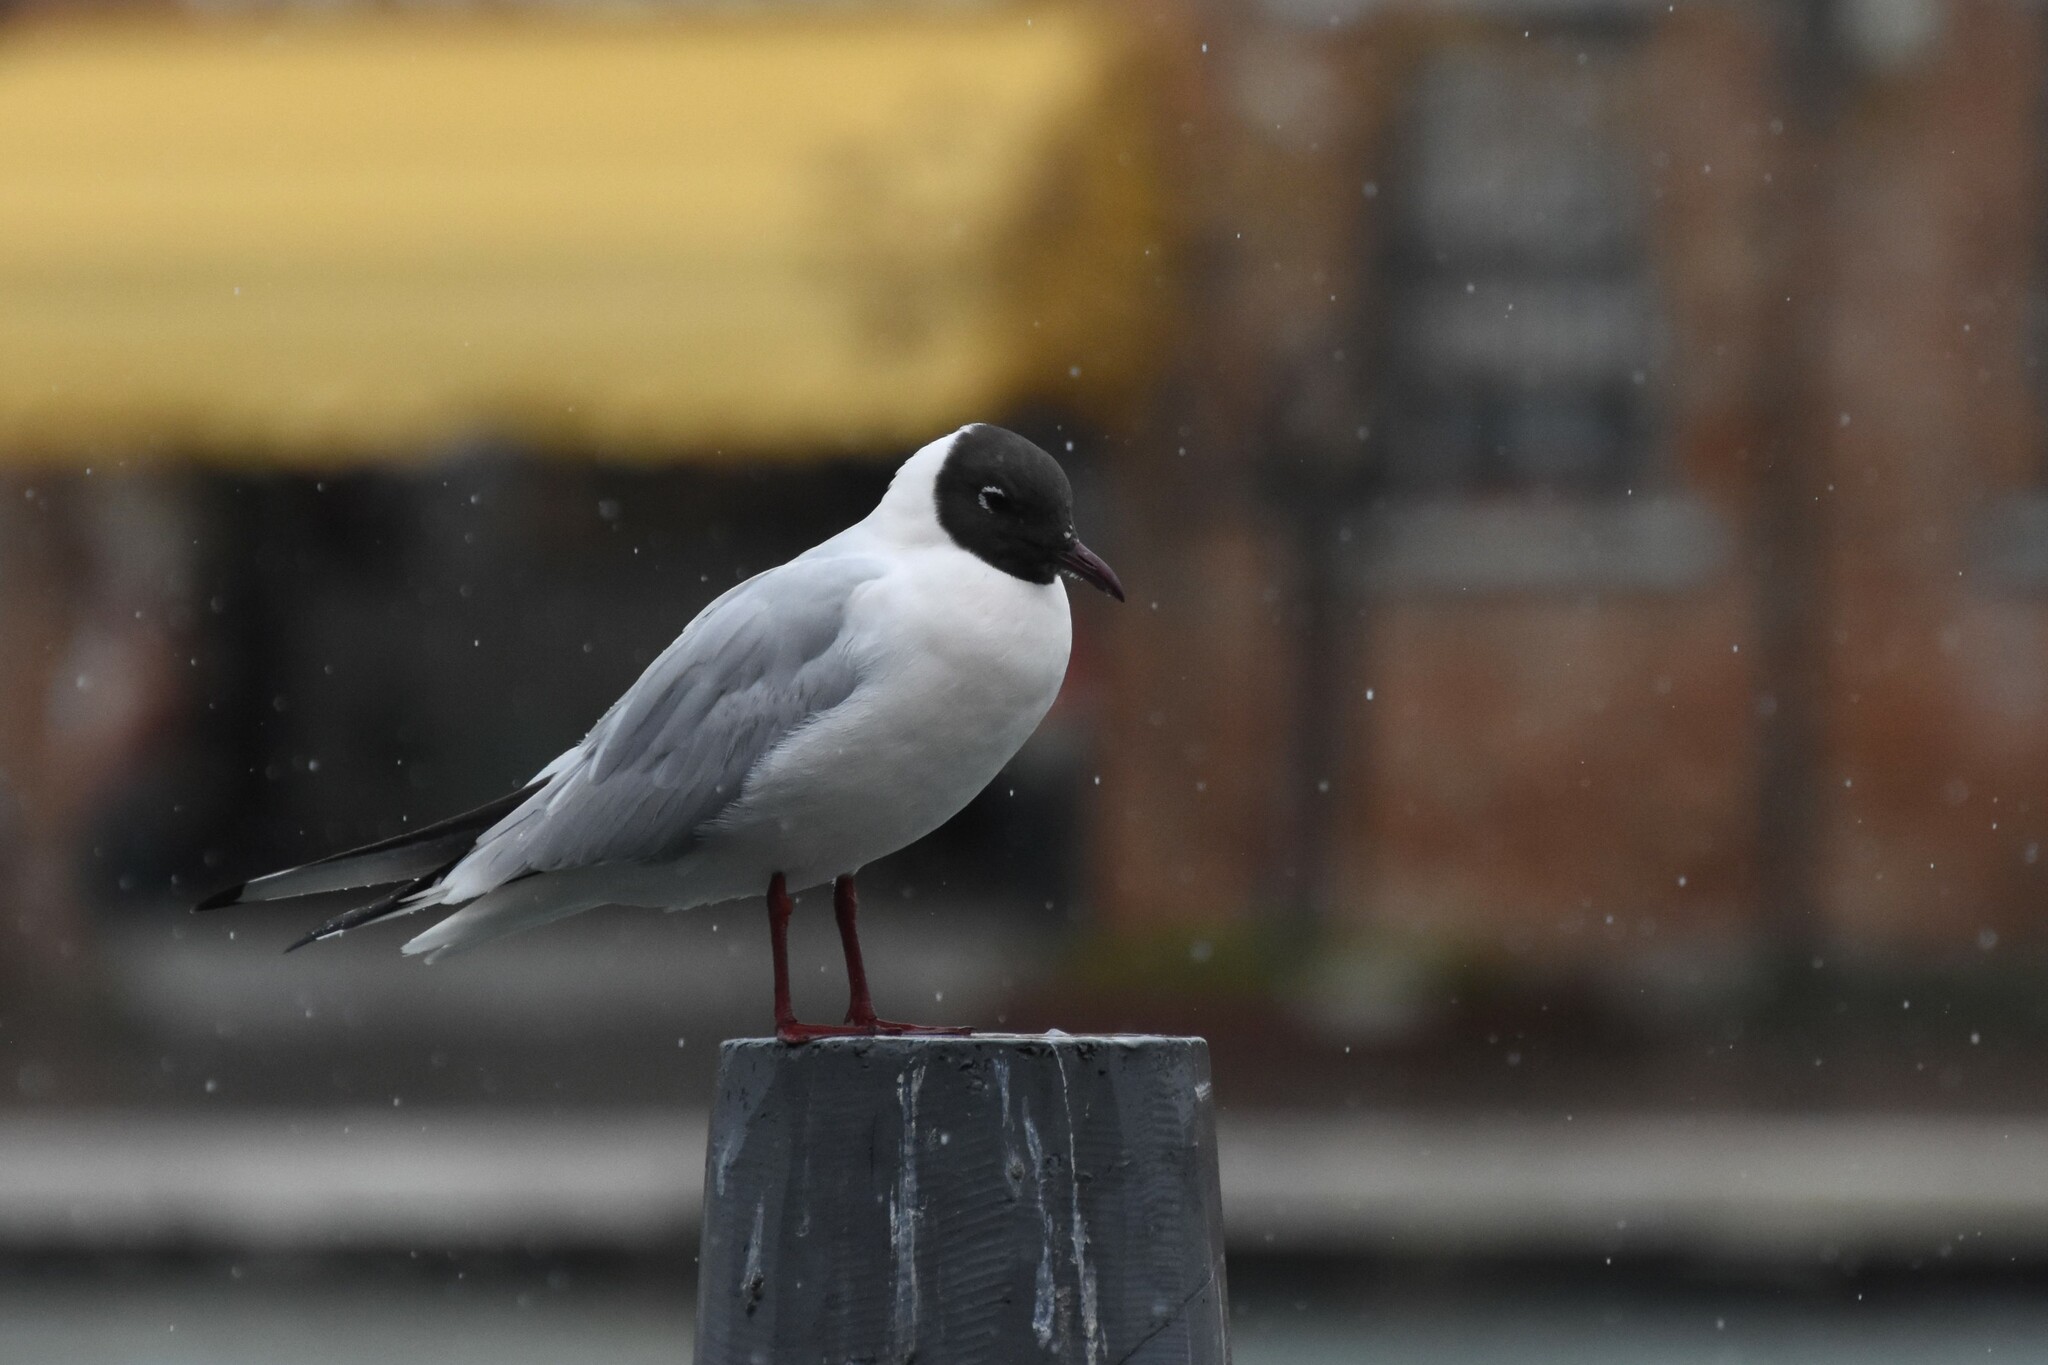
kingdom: Animalia
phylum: Chordata
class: Aves
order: Charadriiformes
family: Laridae
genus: Chroicocephalus
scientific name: Chroicocephalus ridibundus
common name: Black-headed gull
